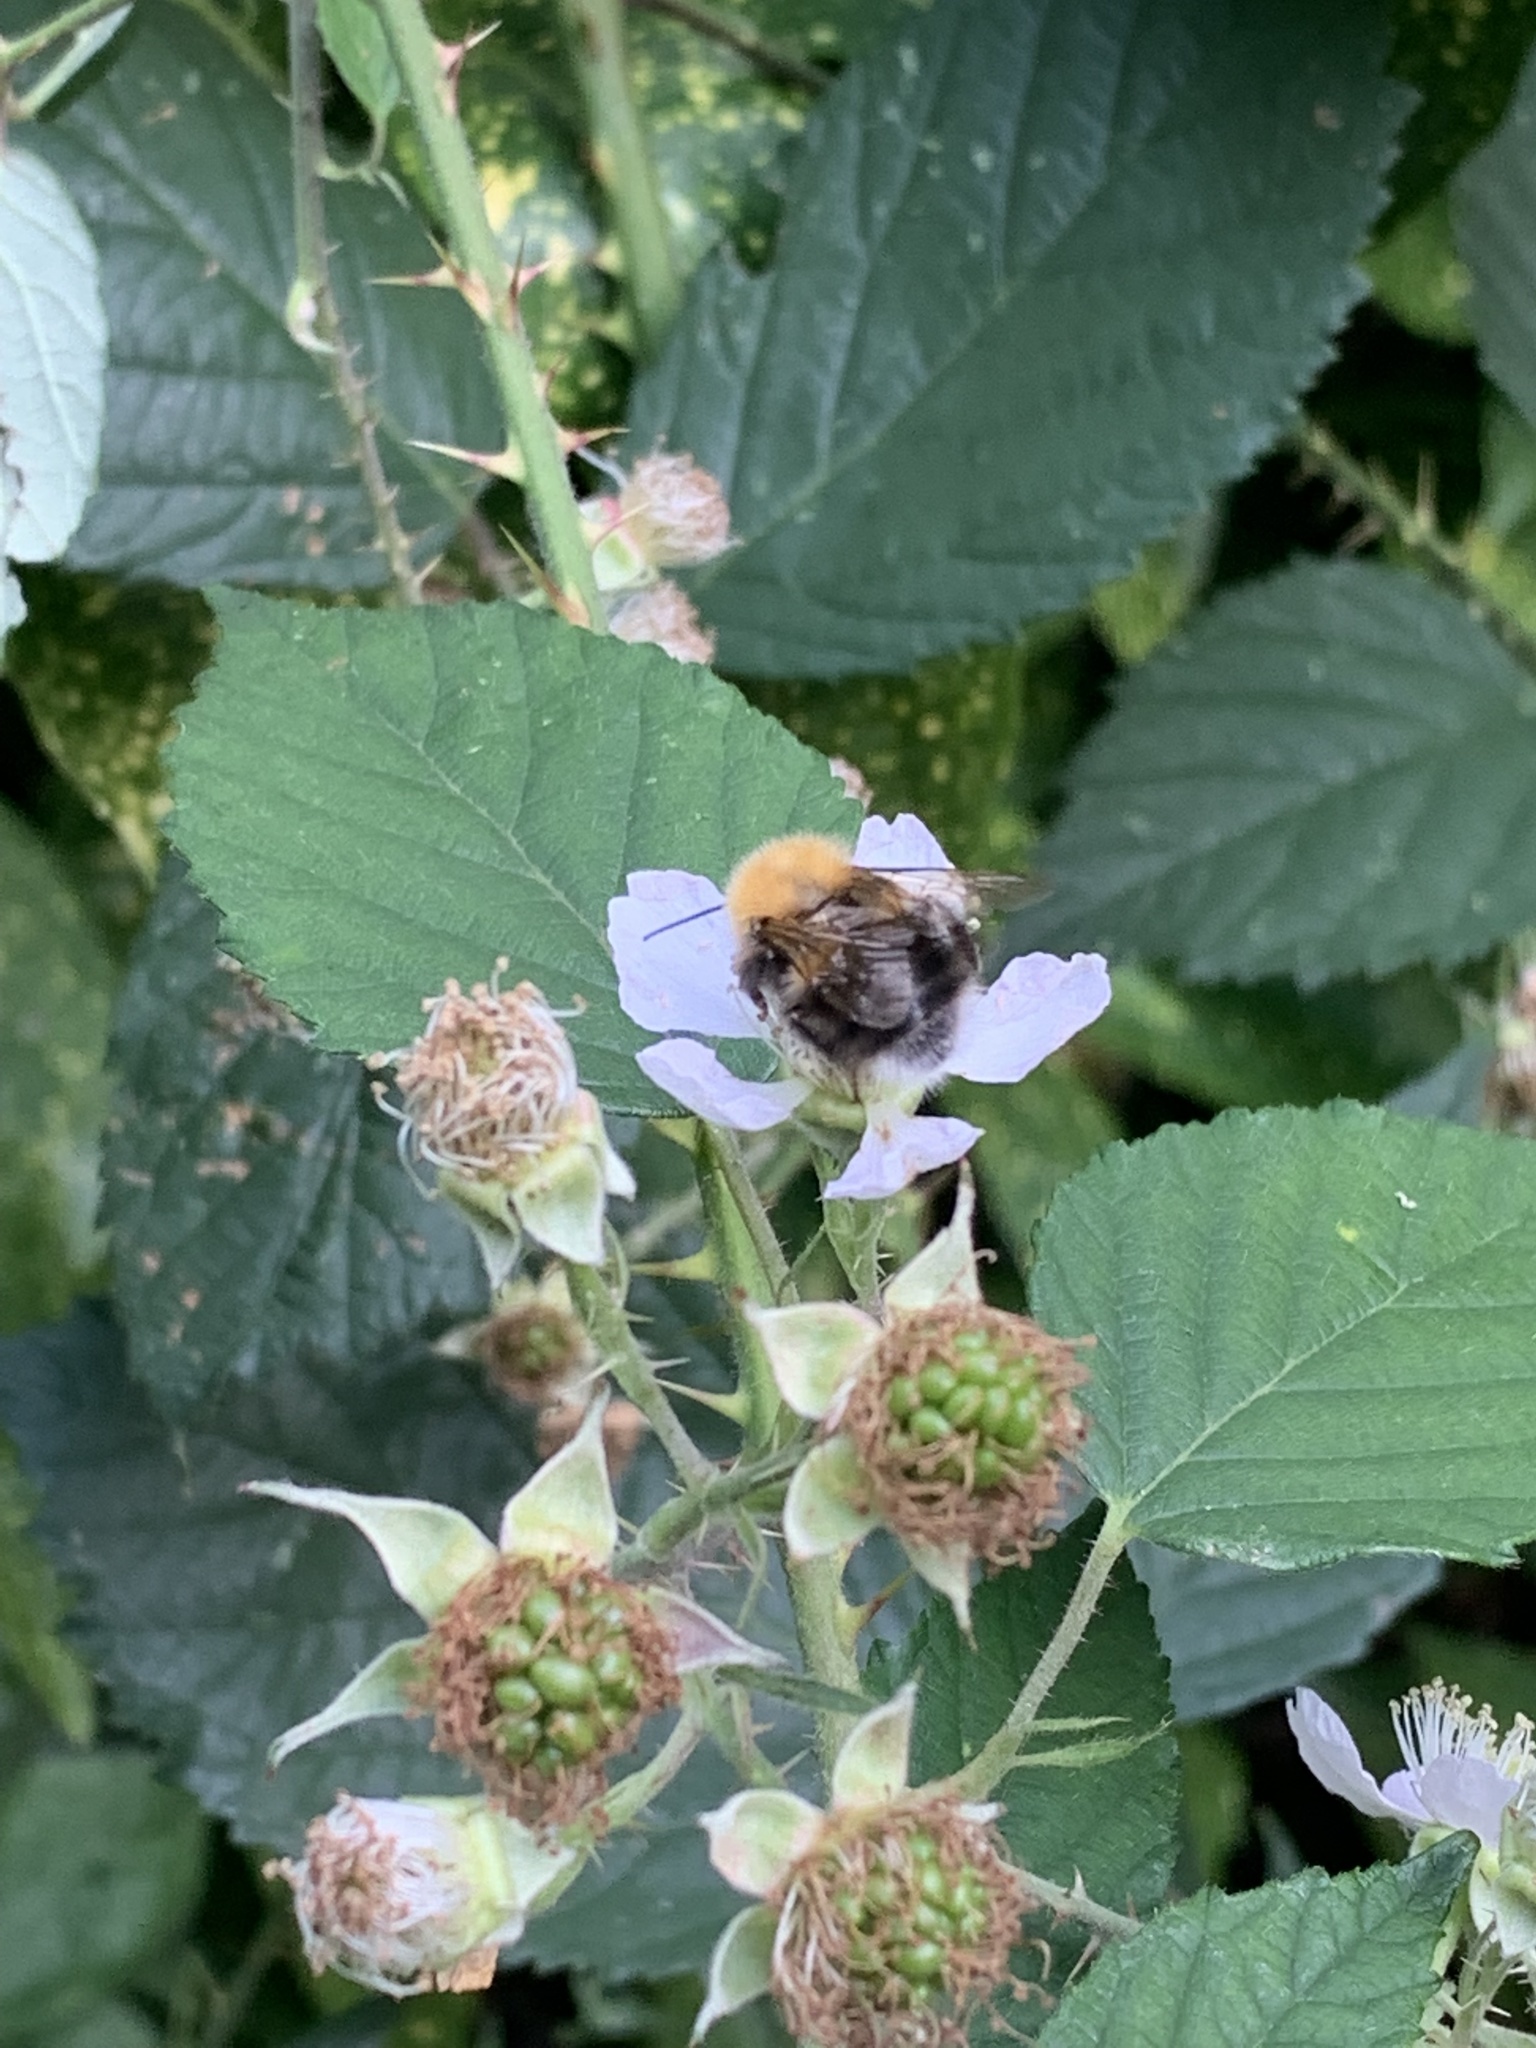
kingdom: Animalia
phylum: Arthropoda
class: Insecta
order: Hymenoptera
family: Apidae
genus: Bombus
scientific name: Bombus hypnorum
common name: New garden bumblebee
